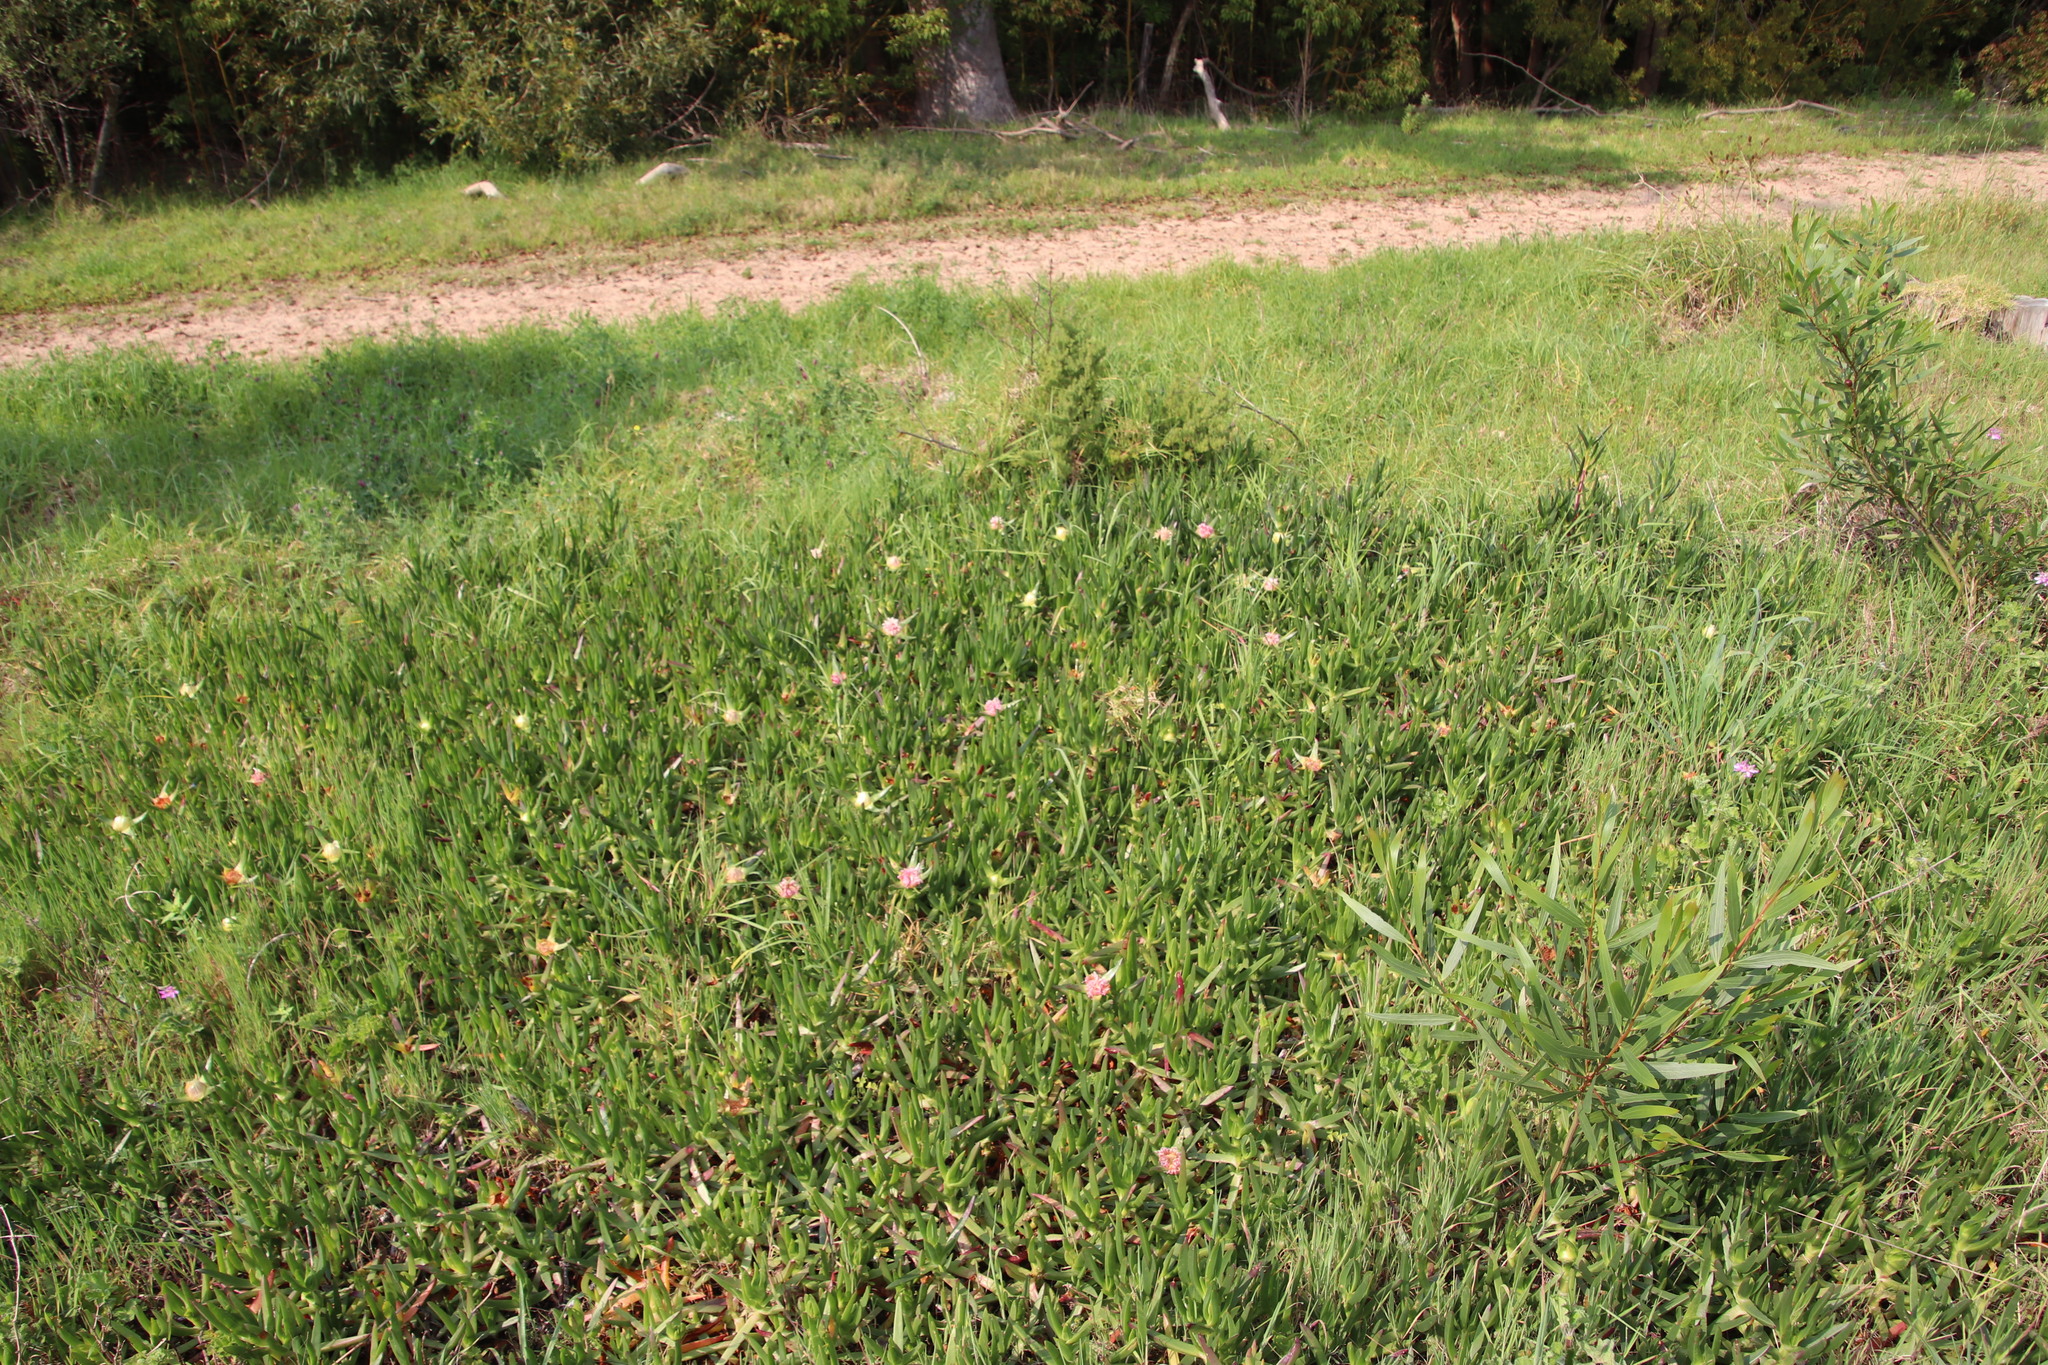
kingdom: Plantae
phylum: Tracheophyta
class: Magnoliopsida
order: Caryophyllales
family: Aizoaceae
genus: Carpobrotus
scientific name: Carpobrotus edulis
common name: Hottentot-fig
